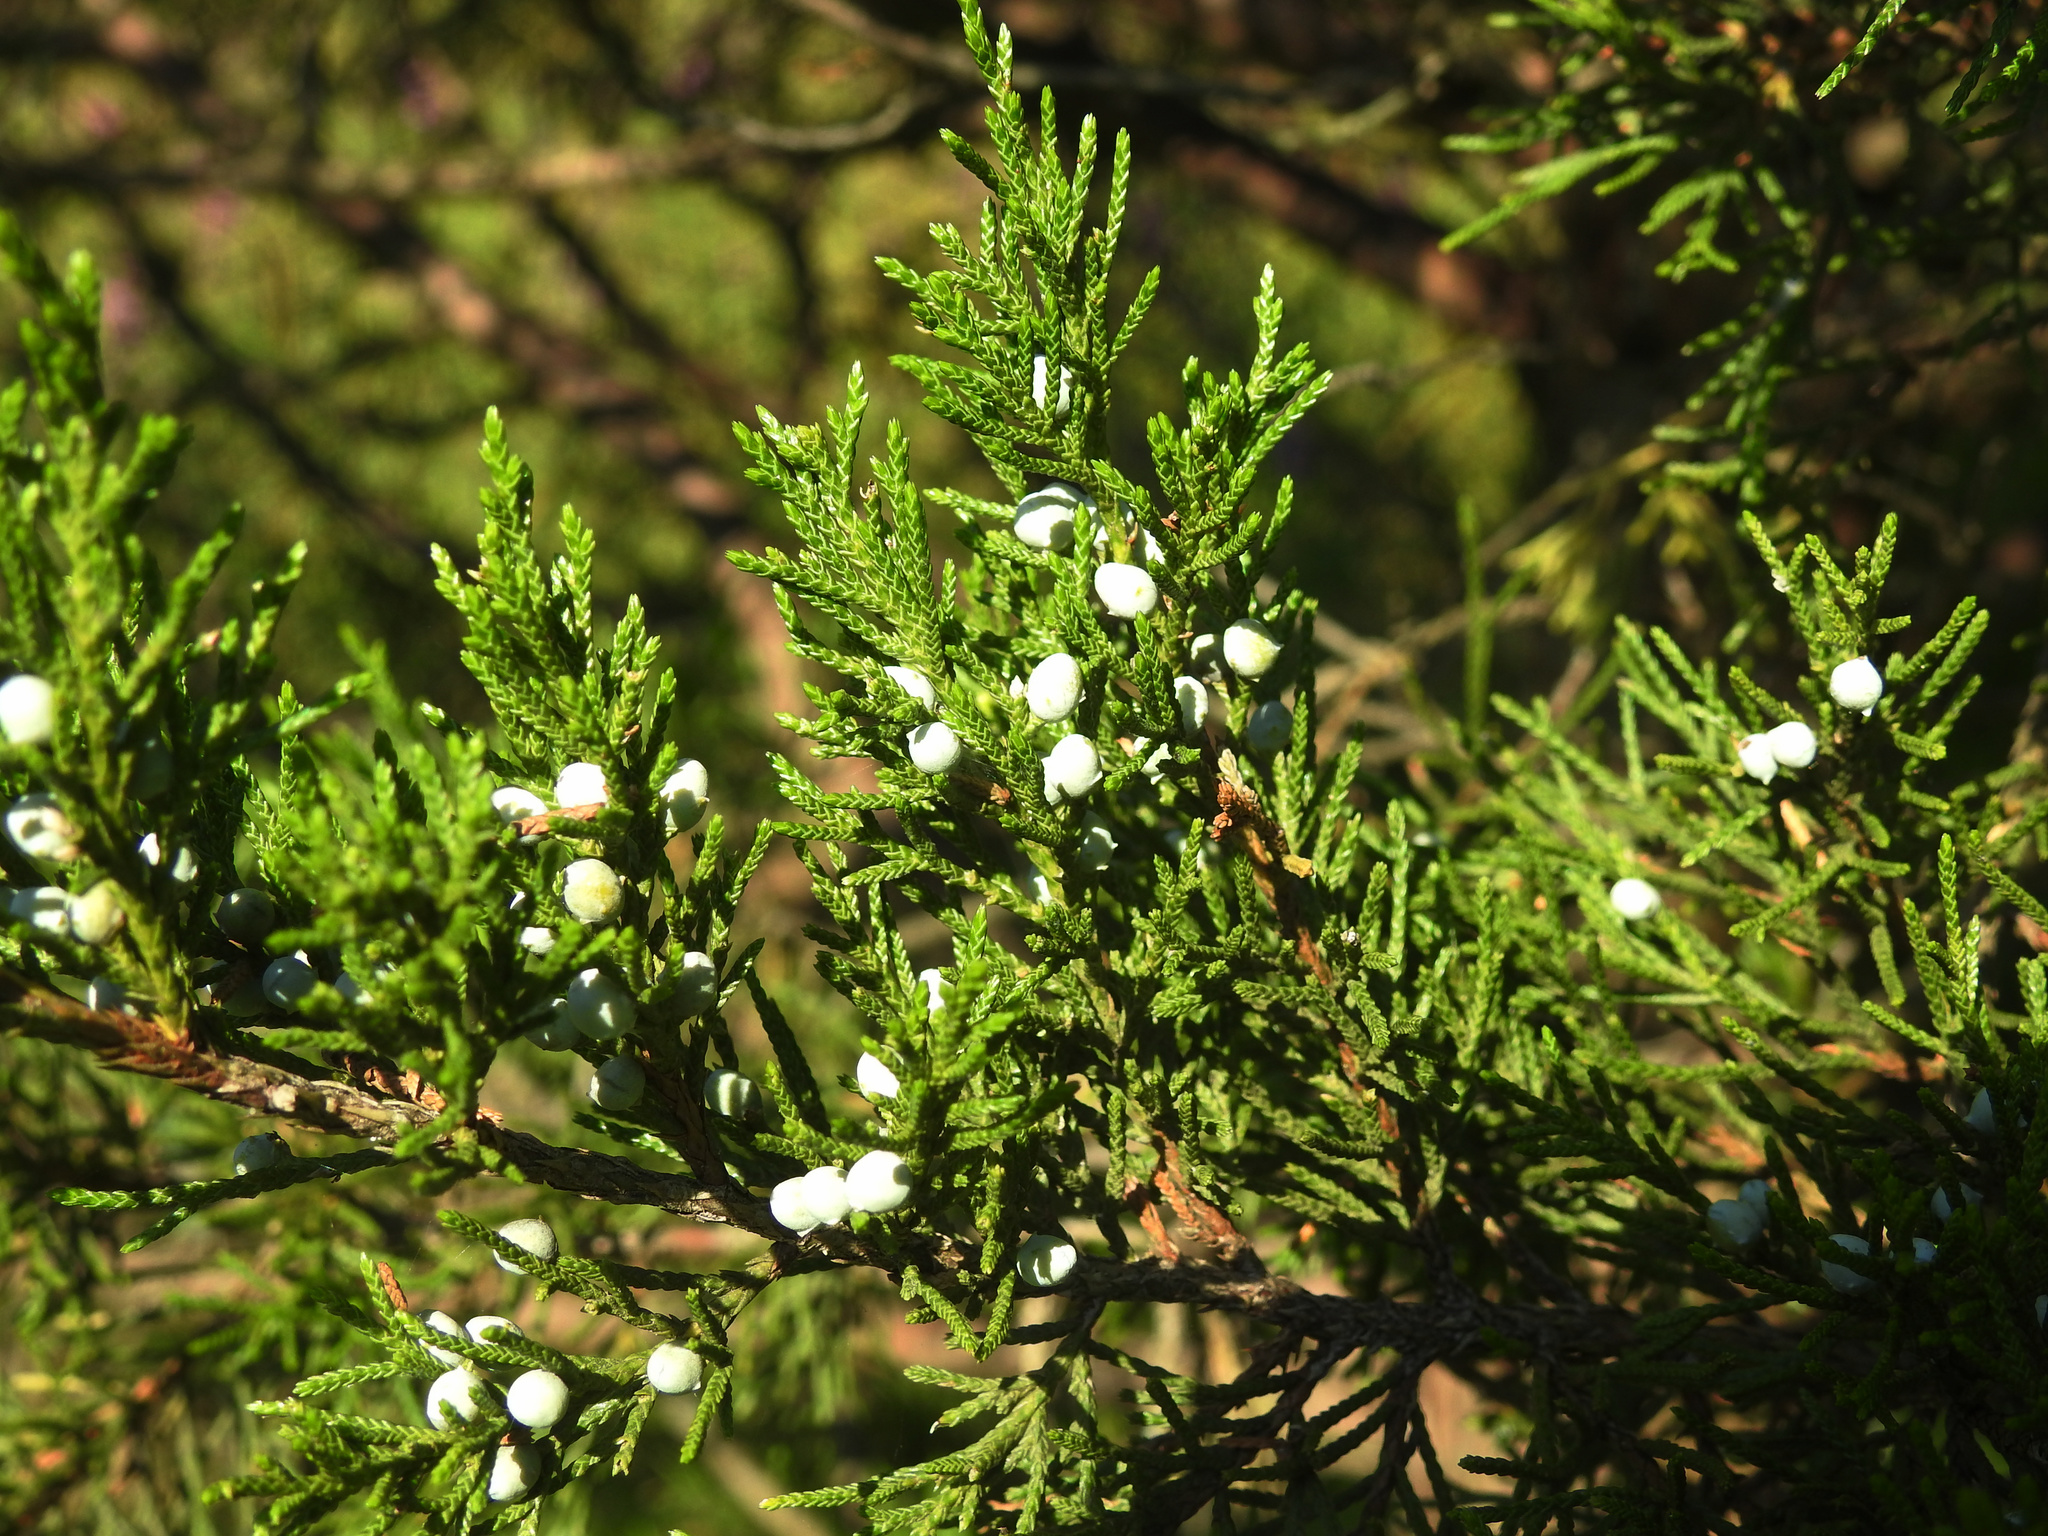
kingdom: Plantae
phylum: Tracheophyta
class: Pinopsida
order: Pinales
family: Cupressaceae
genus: Juniperus
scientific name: Juniperus virginiana
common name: Red juniper
